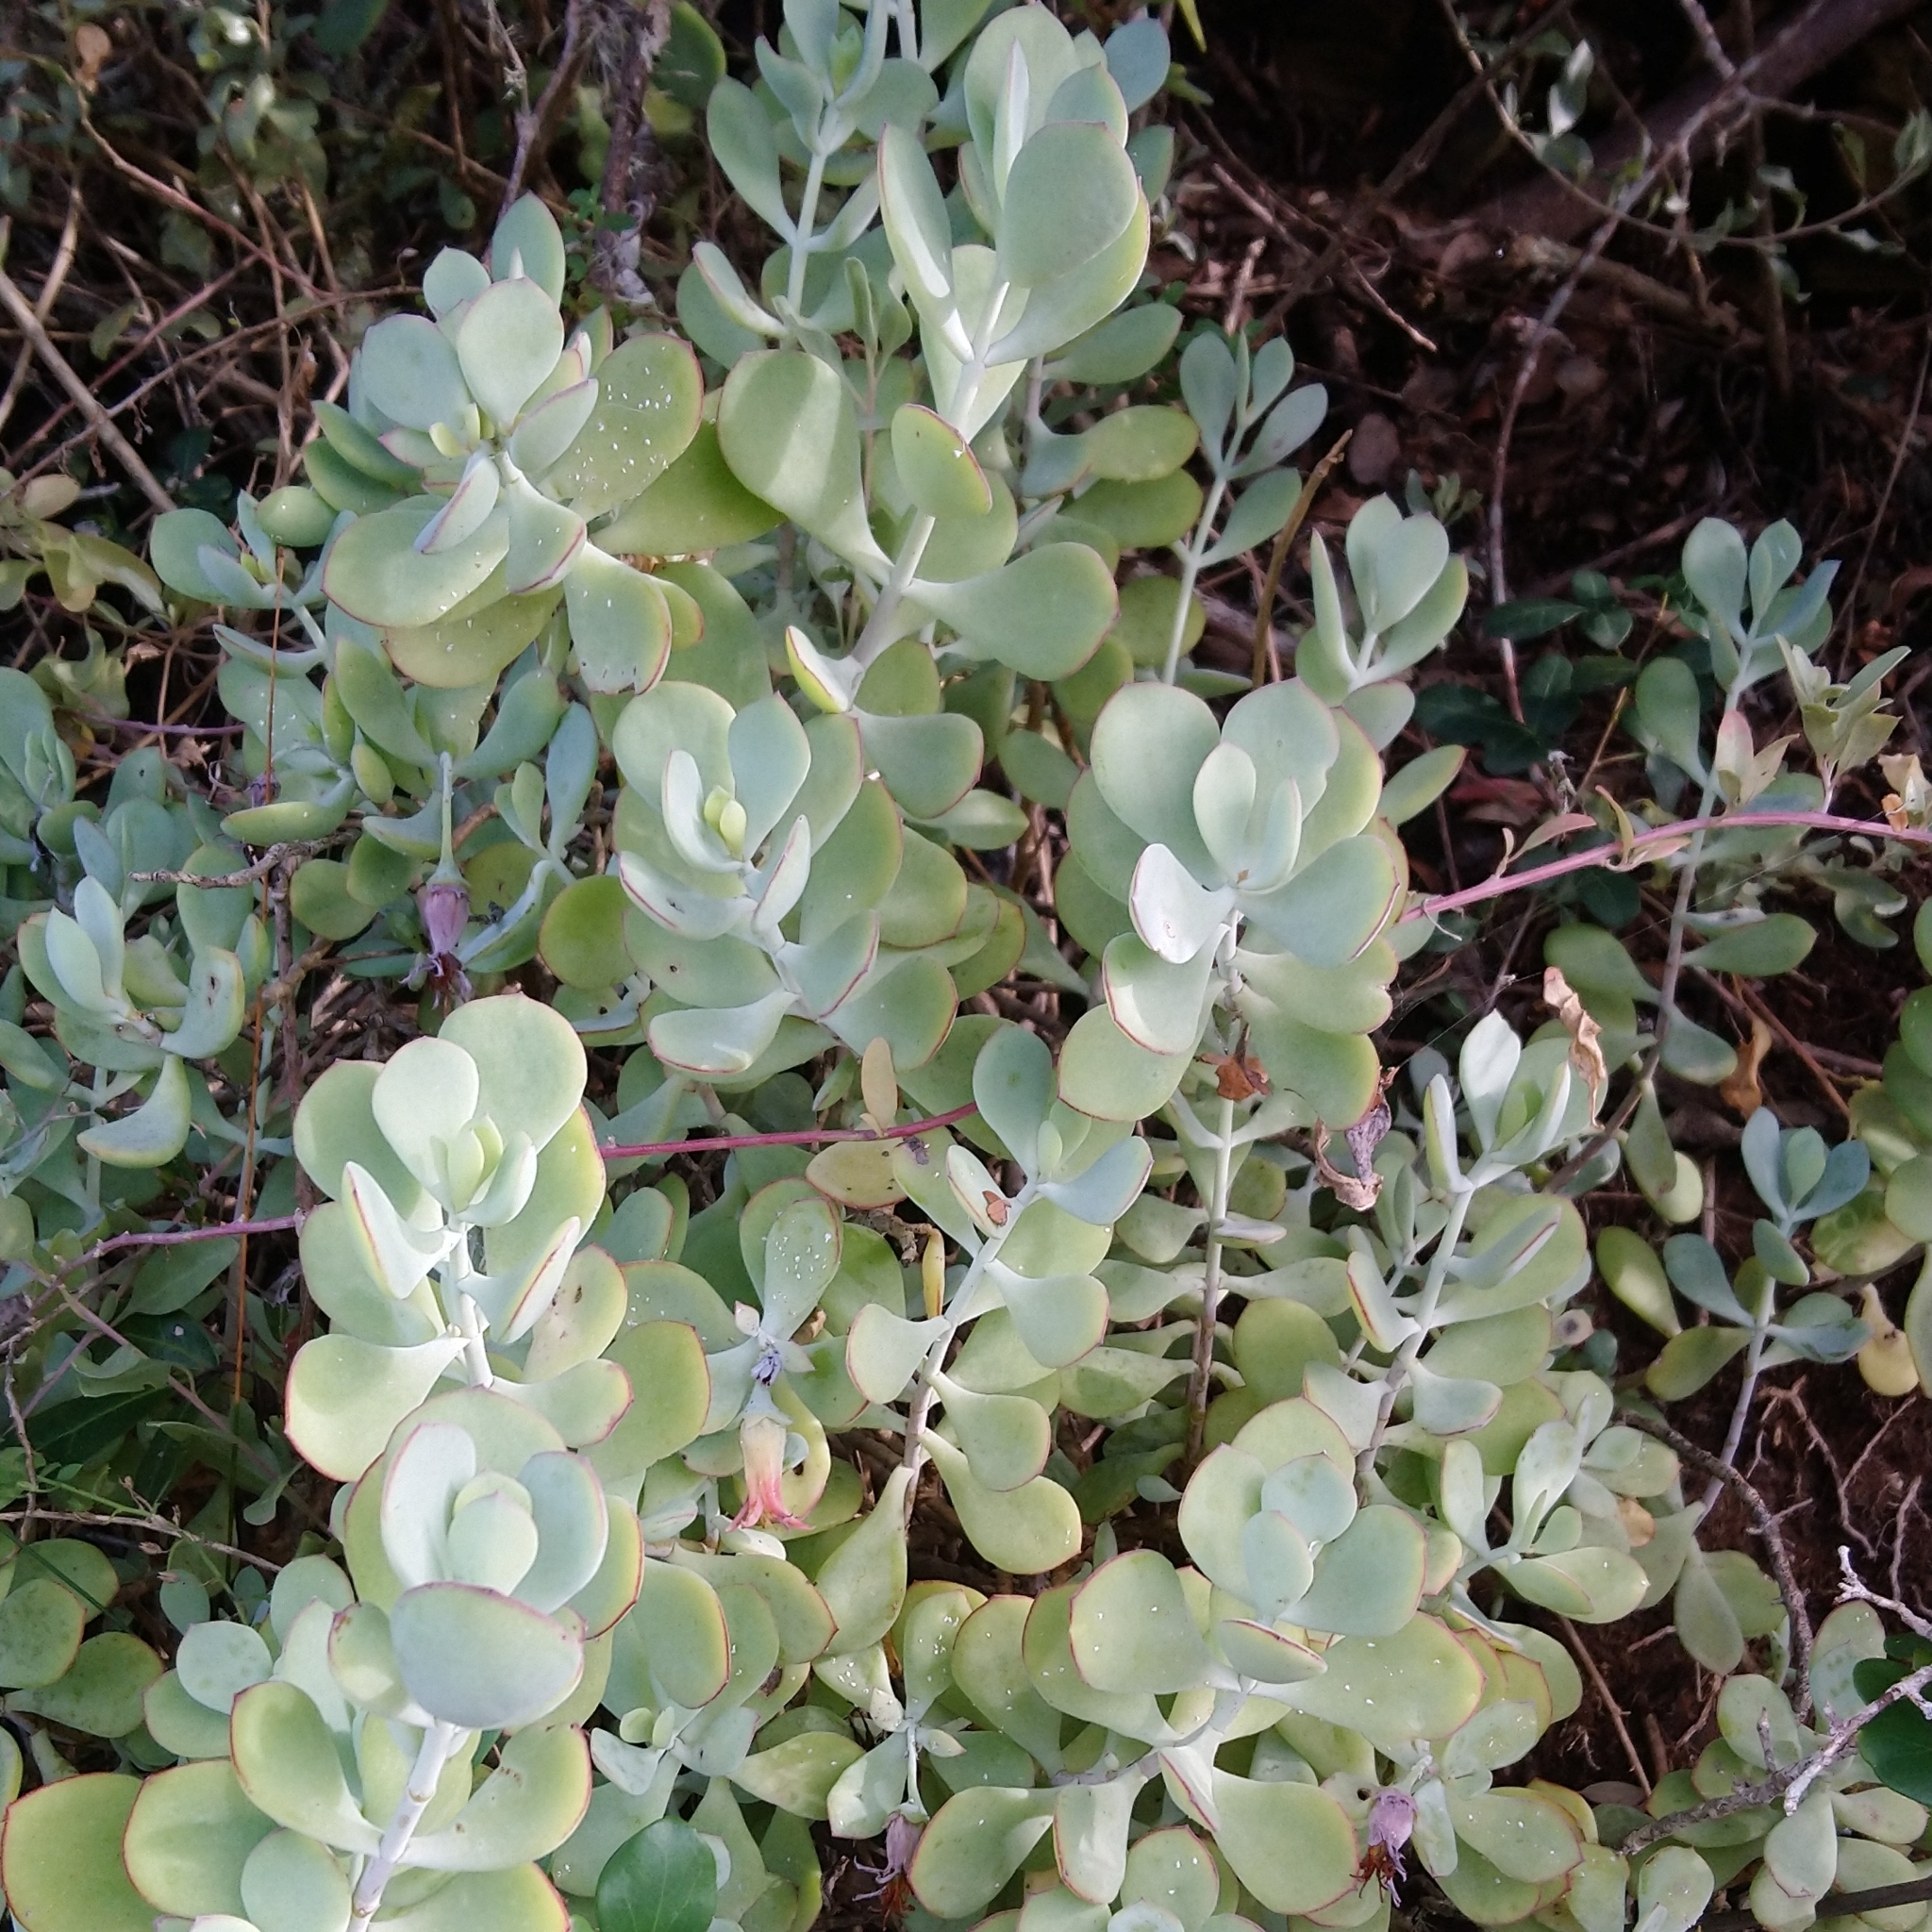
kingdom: Plantae
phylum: Tracheophyta
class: Magnoliopsida
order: Saxifragales
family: Crassulaceae
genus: Cotyledon
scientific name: Cotyledon woodii
